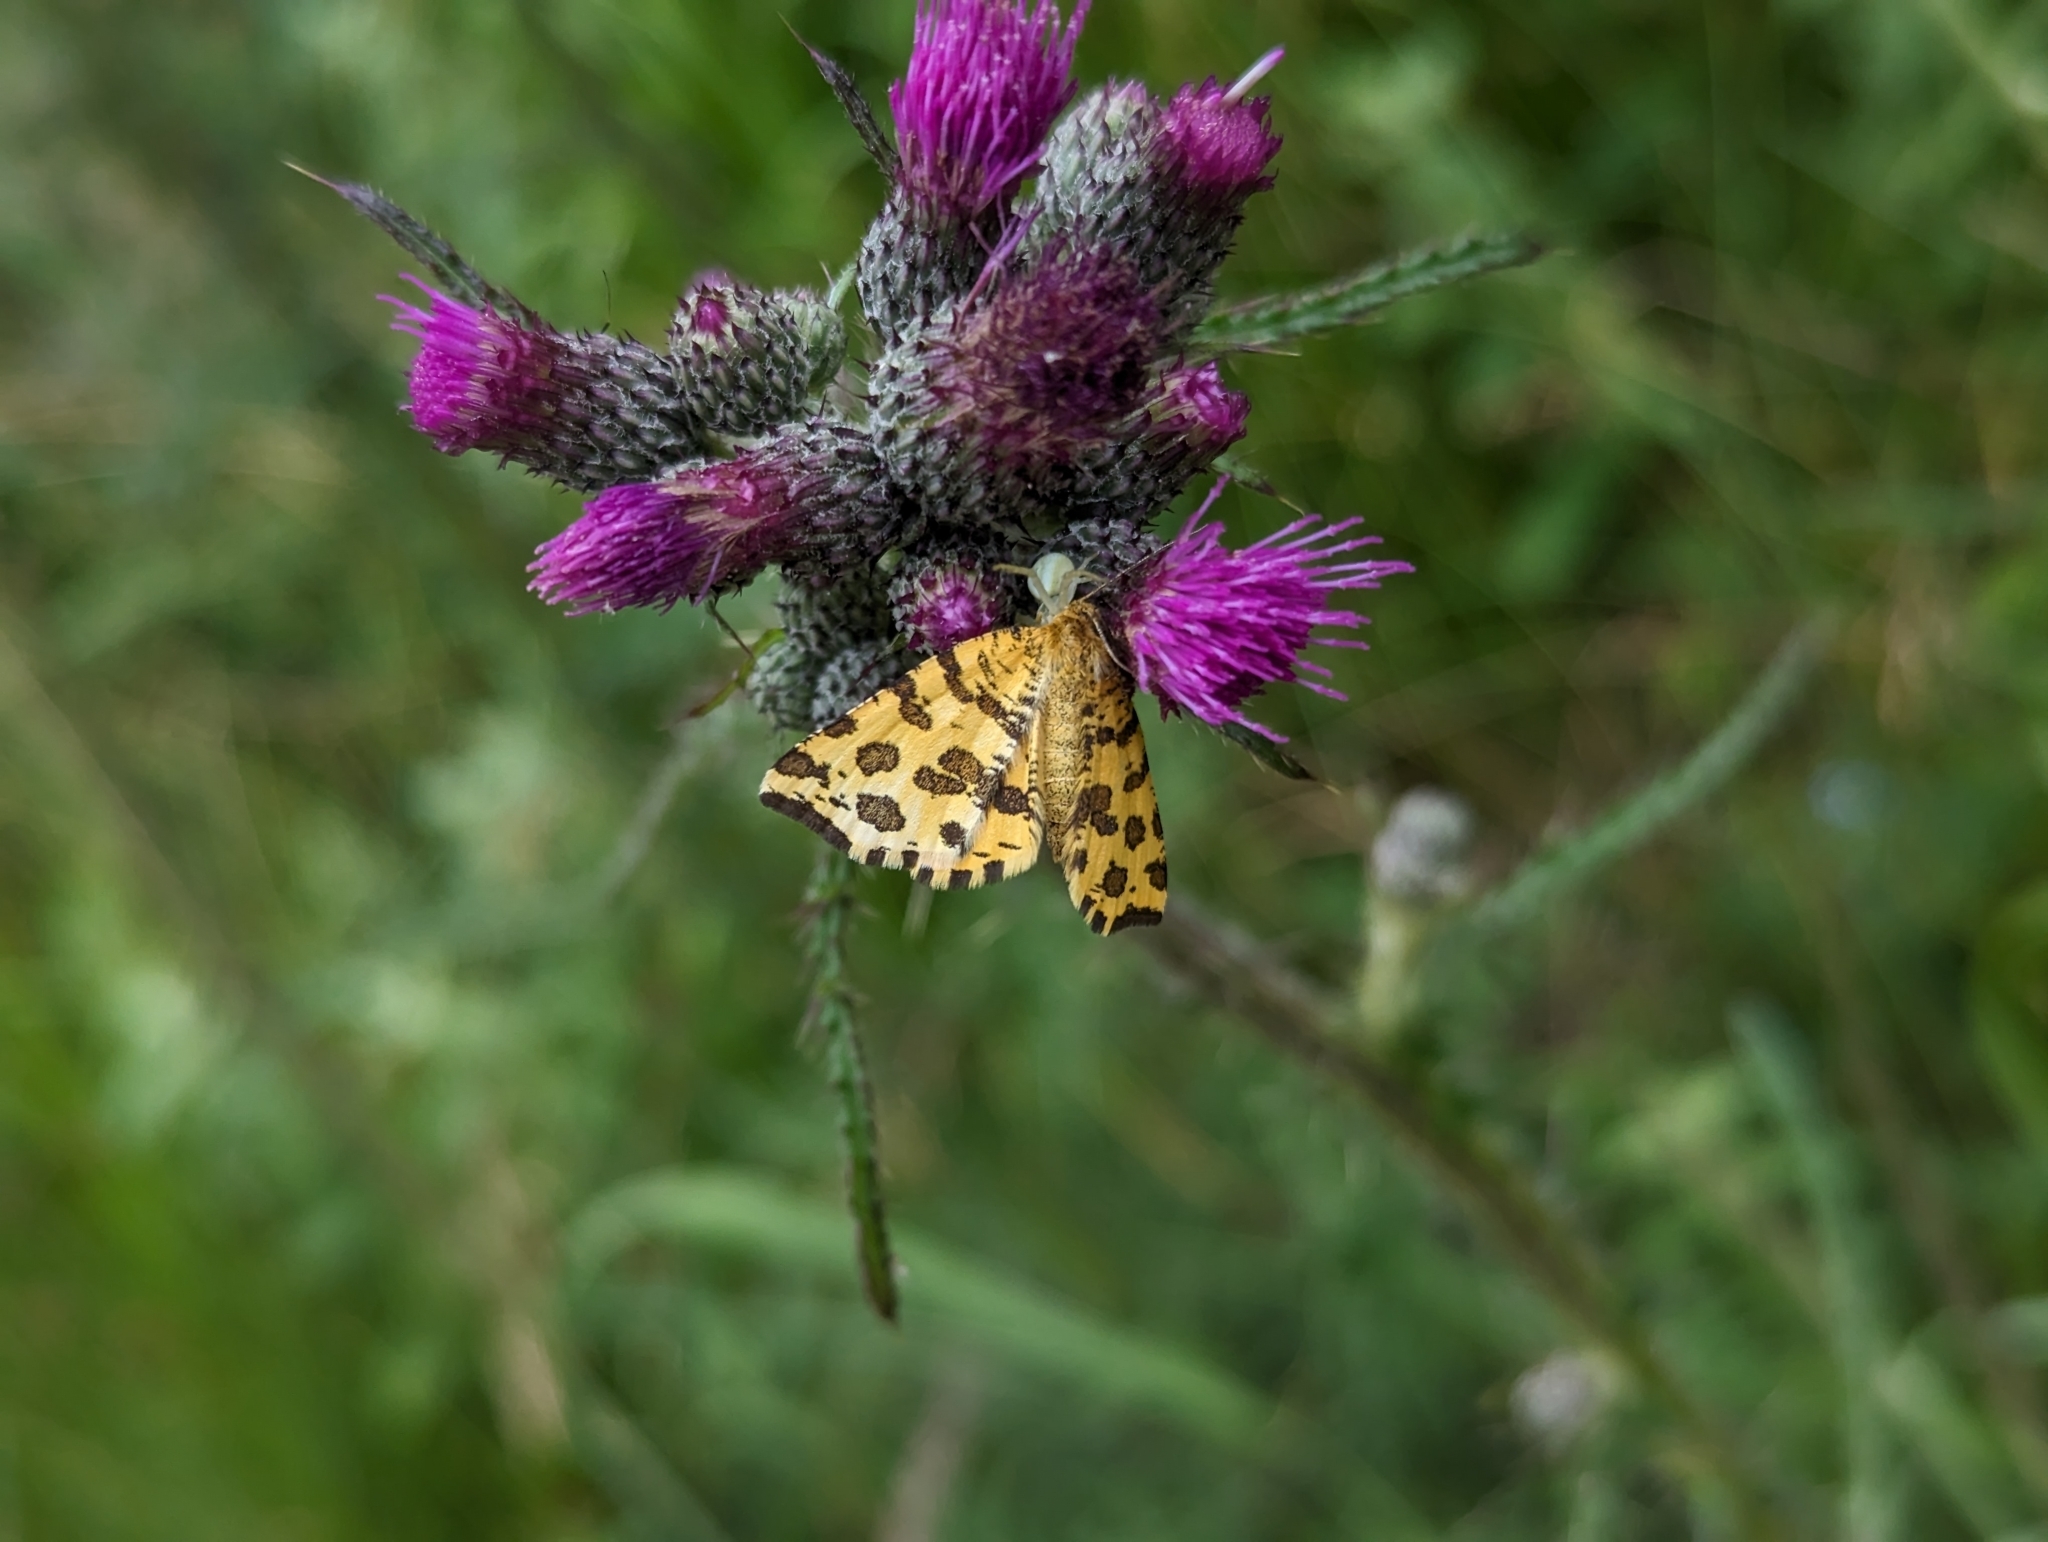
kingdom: Animalia
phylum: Arthropoda
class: Insecta
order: Lepidoptera
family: Geometridae
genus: Pseudopanthera
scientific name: Pseudopanthera macularia
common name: Speckled yellow
